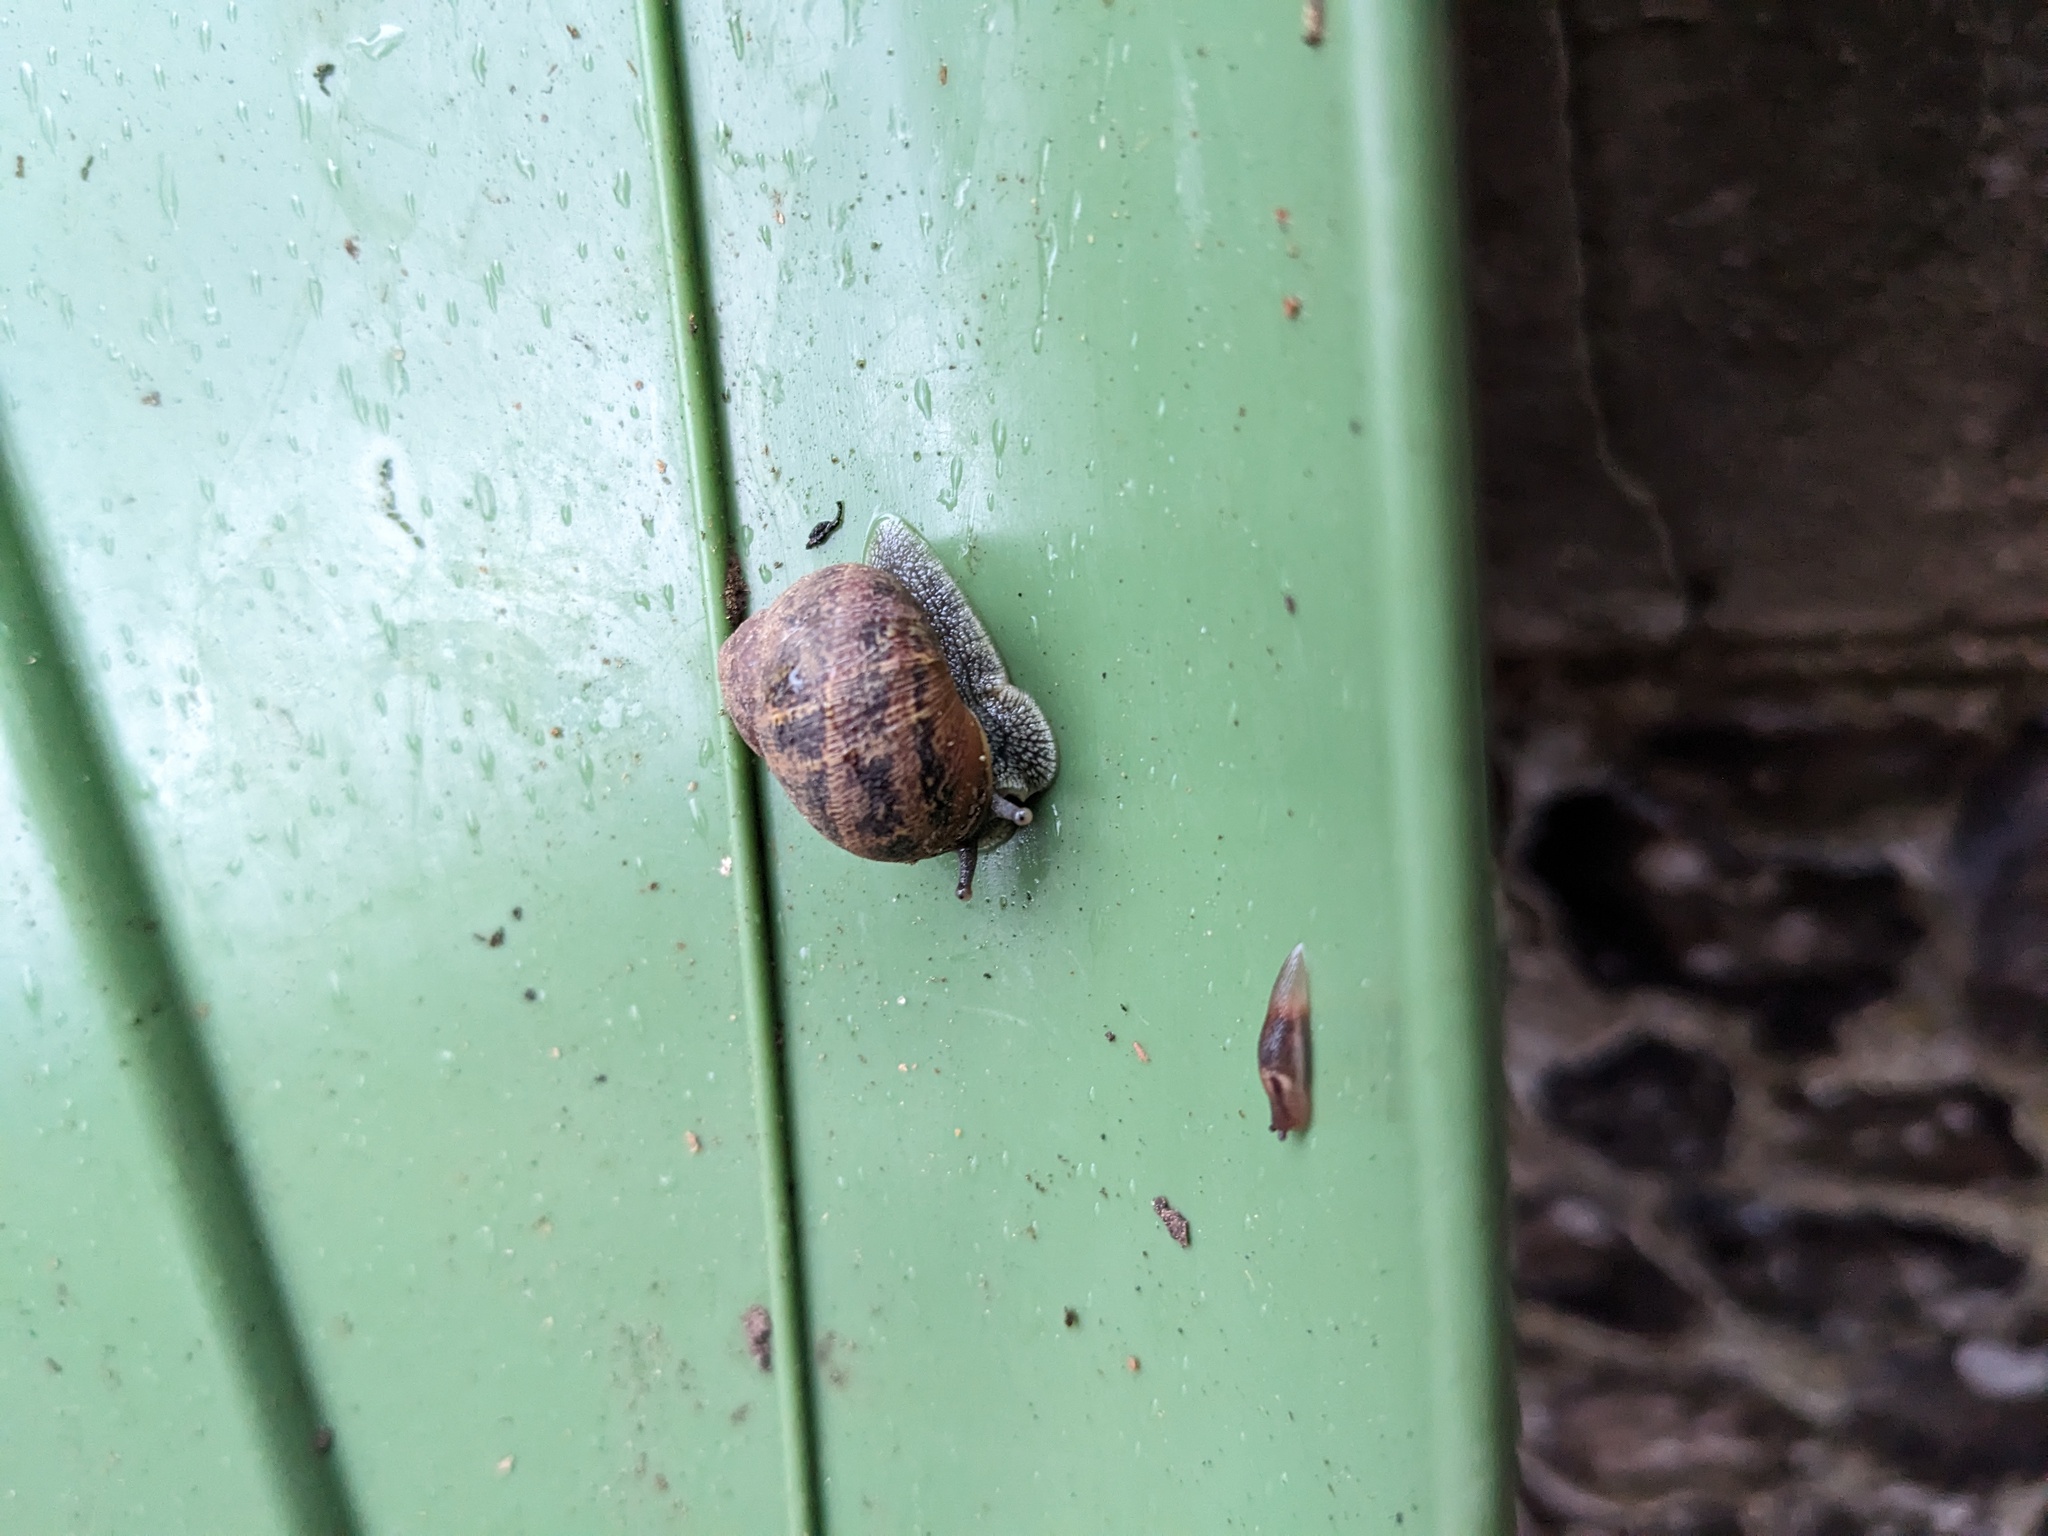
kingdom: Animalia
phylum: Mollusca
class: Gastropoda
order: Stylommatophora
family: Helicidae
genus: Cornu
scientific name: Cornu aspersum
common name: Brown garden snail
